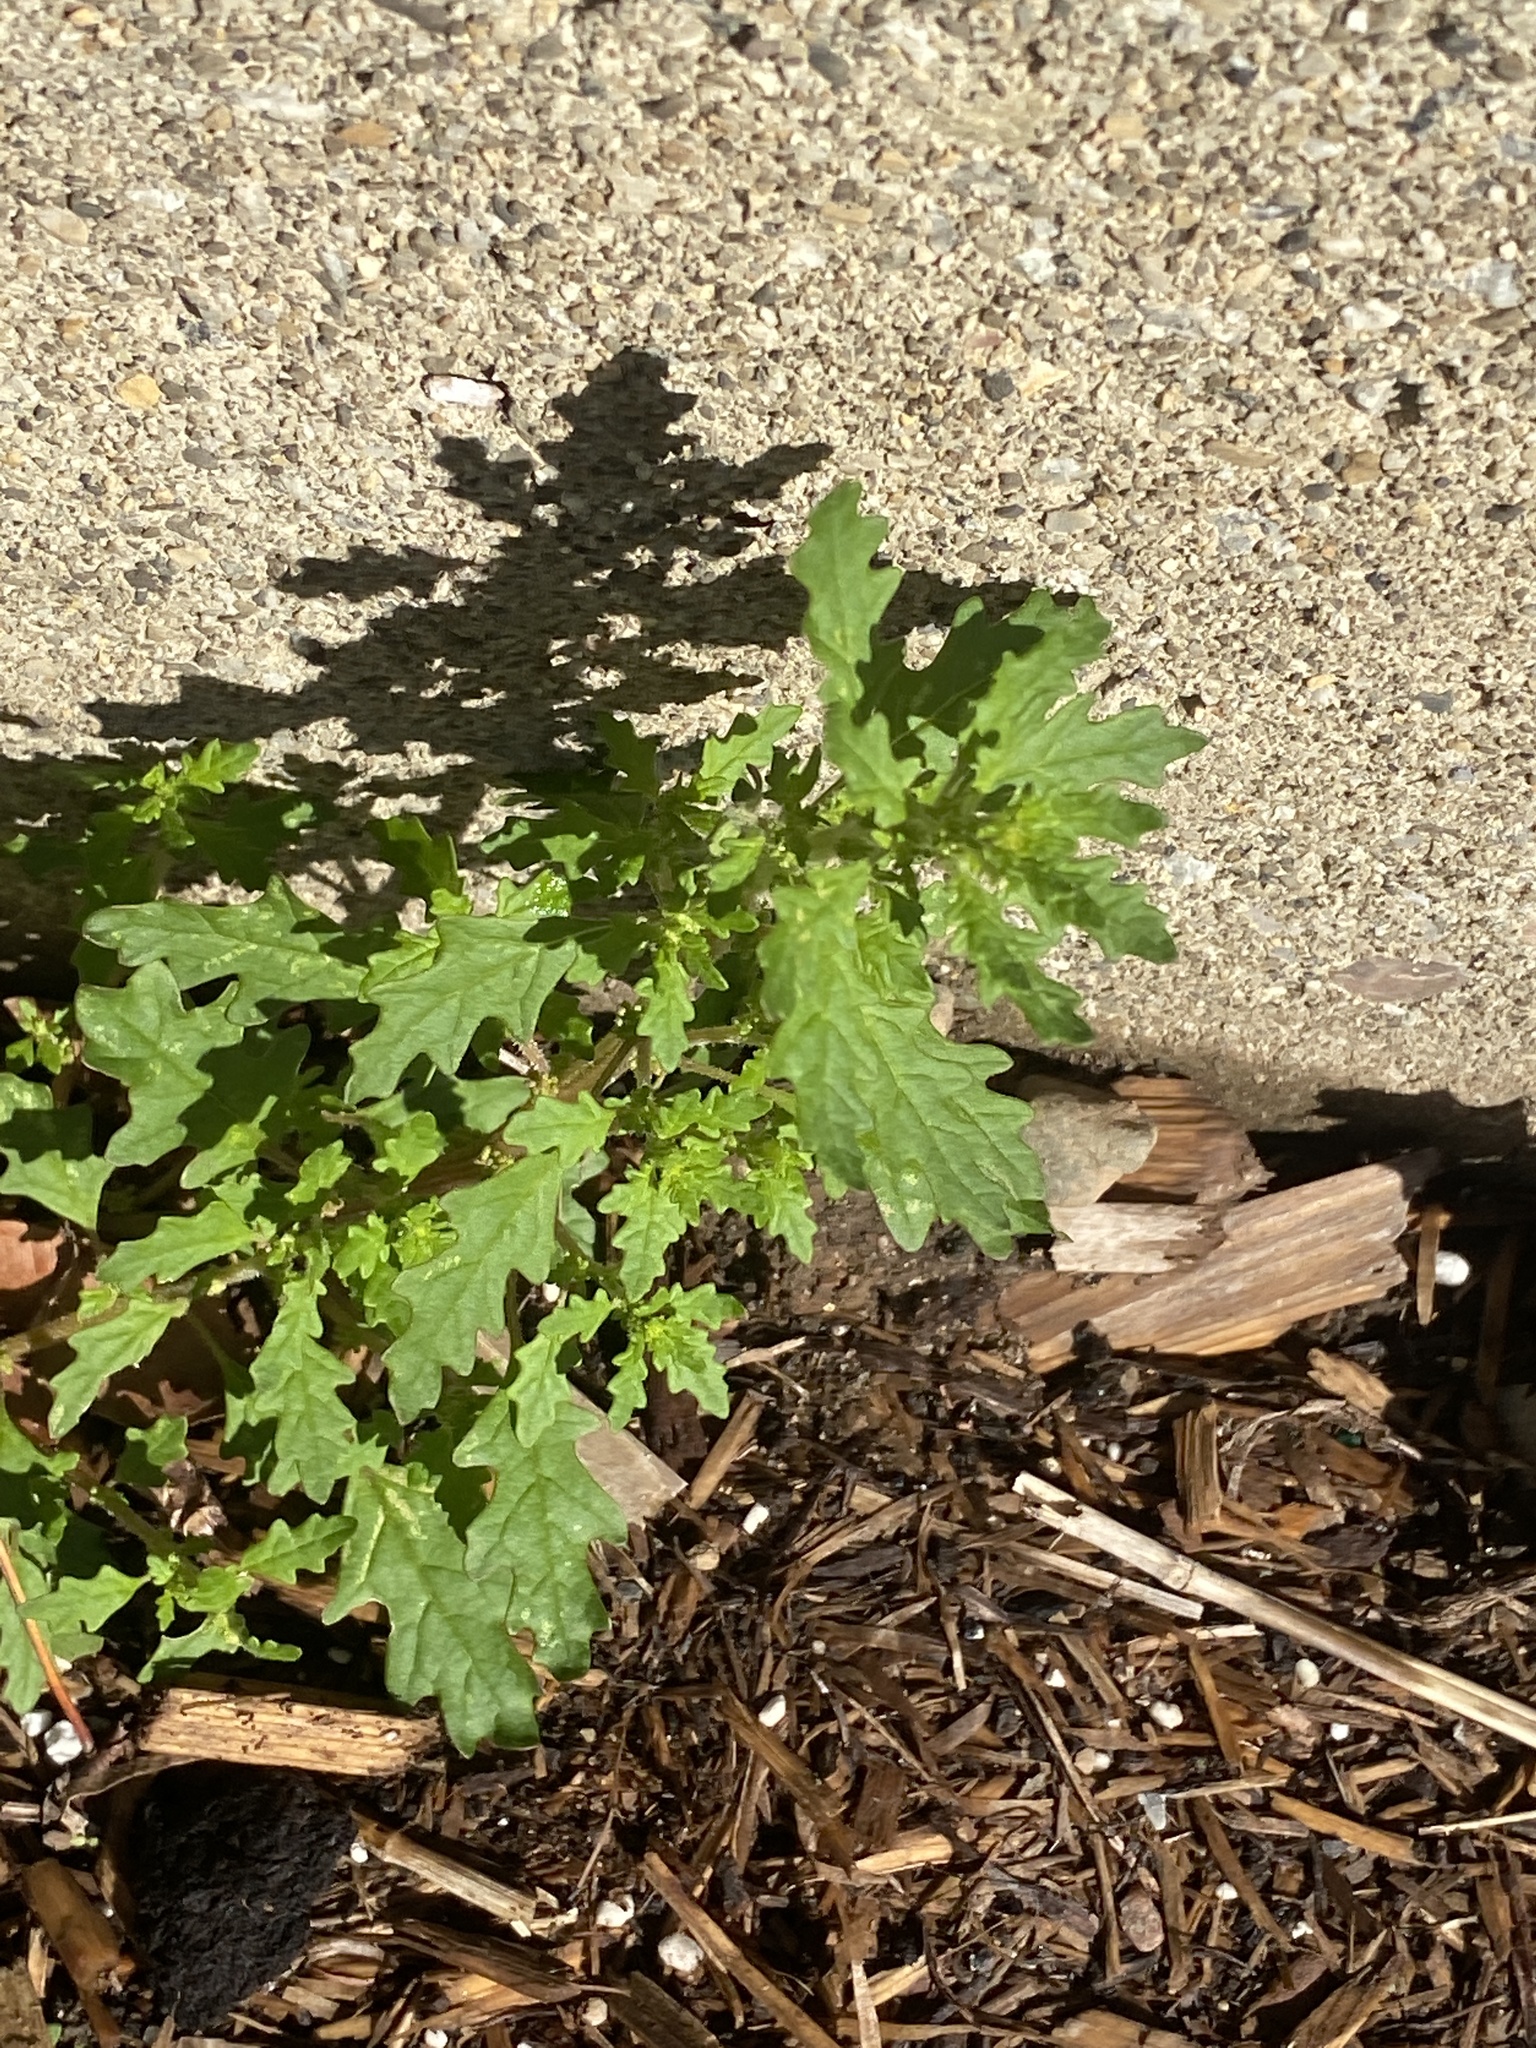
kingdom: Plantae
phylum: Tracheophyta
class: Magnoliopsida
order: Caryophyllales
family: Amaranthaceae
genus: Dysphania
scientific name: Dysphania pumilio
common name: Clammy goosefoot
